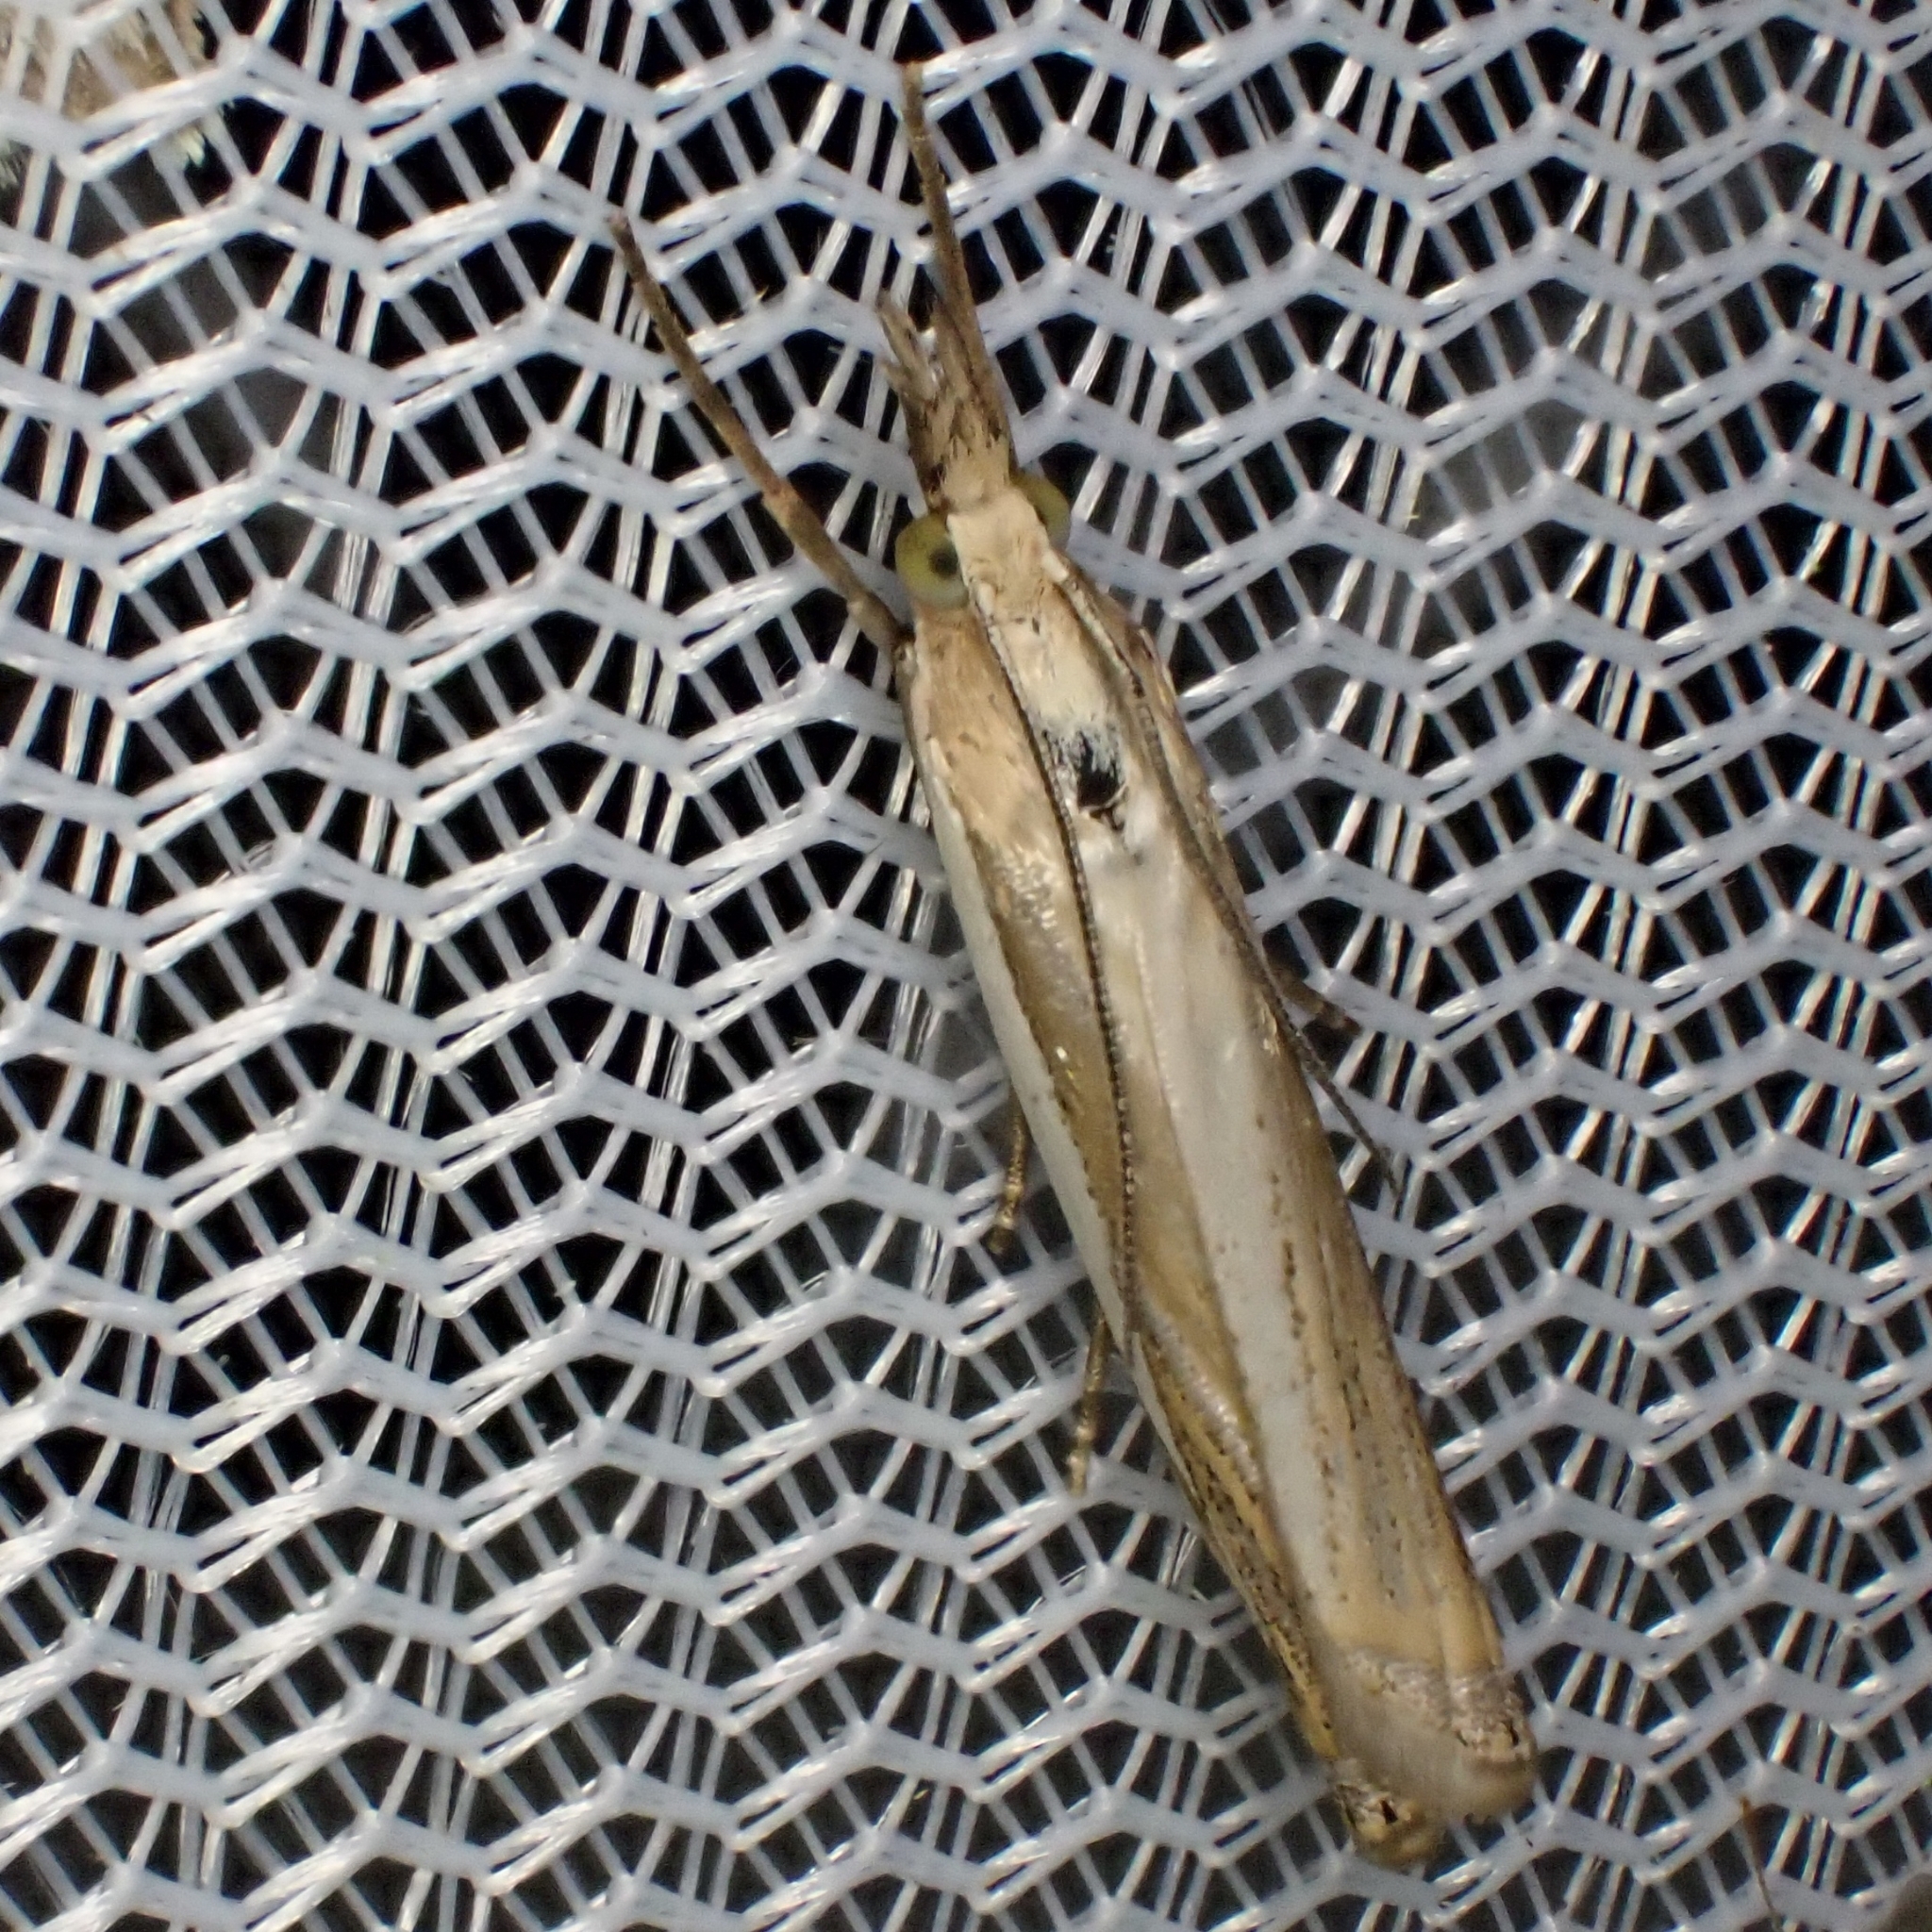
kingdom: Animalia
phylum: Arthropoda
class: Insecta
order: Lepidoptera
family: Crambidae
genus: Crambus
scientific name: Crambus pascuella
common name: Inlaid grass-veneer
